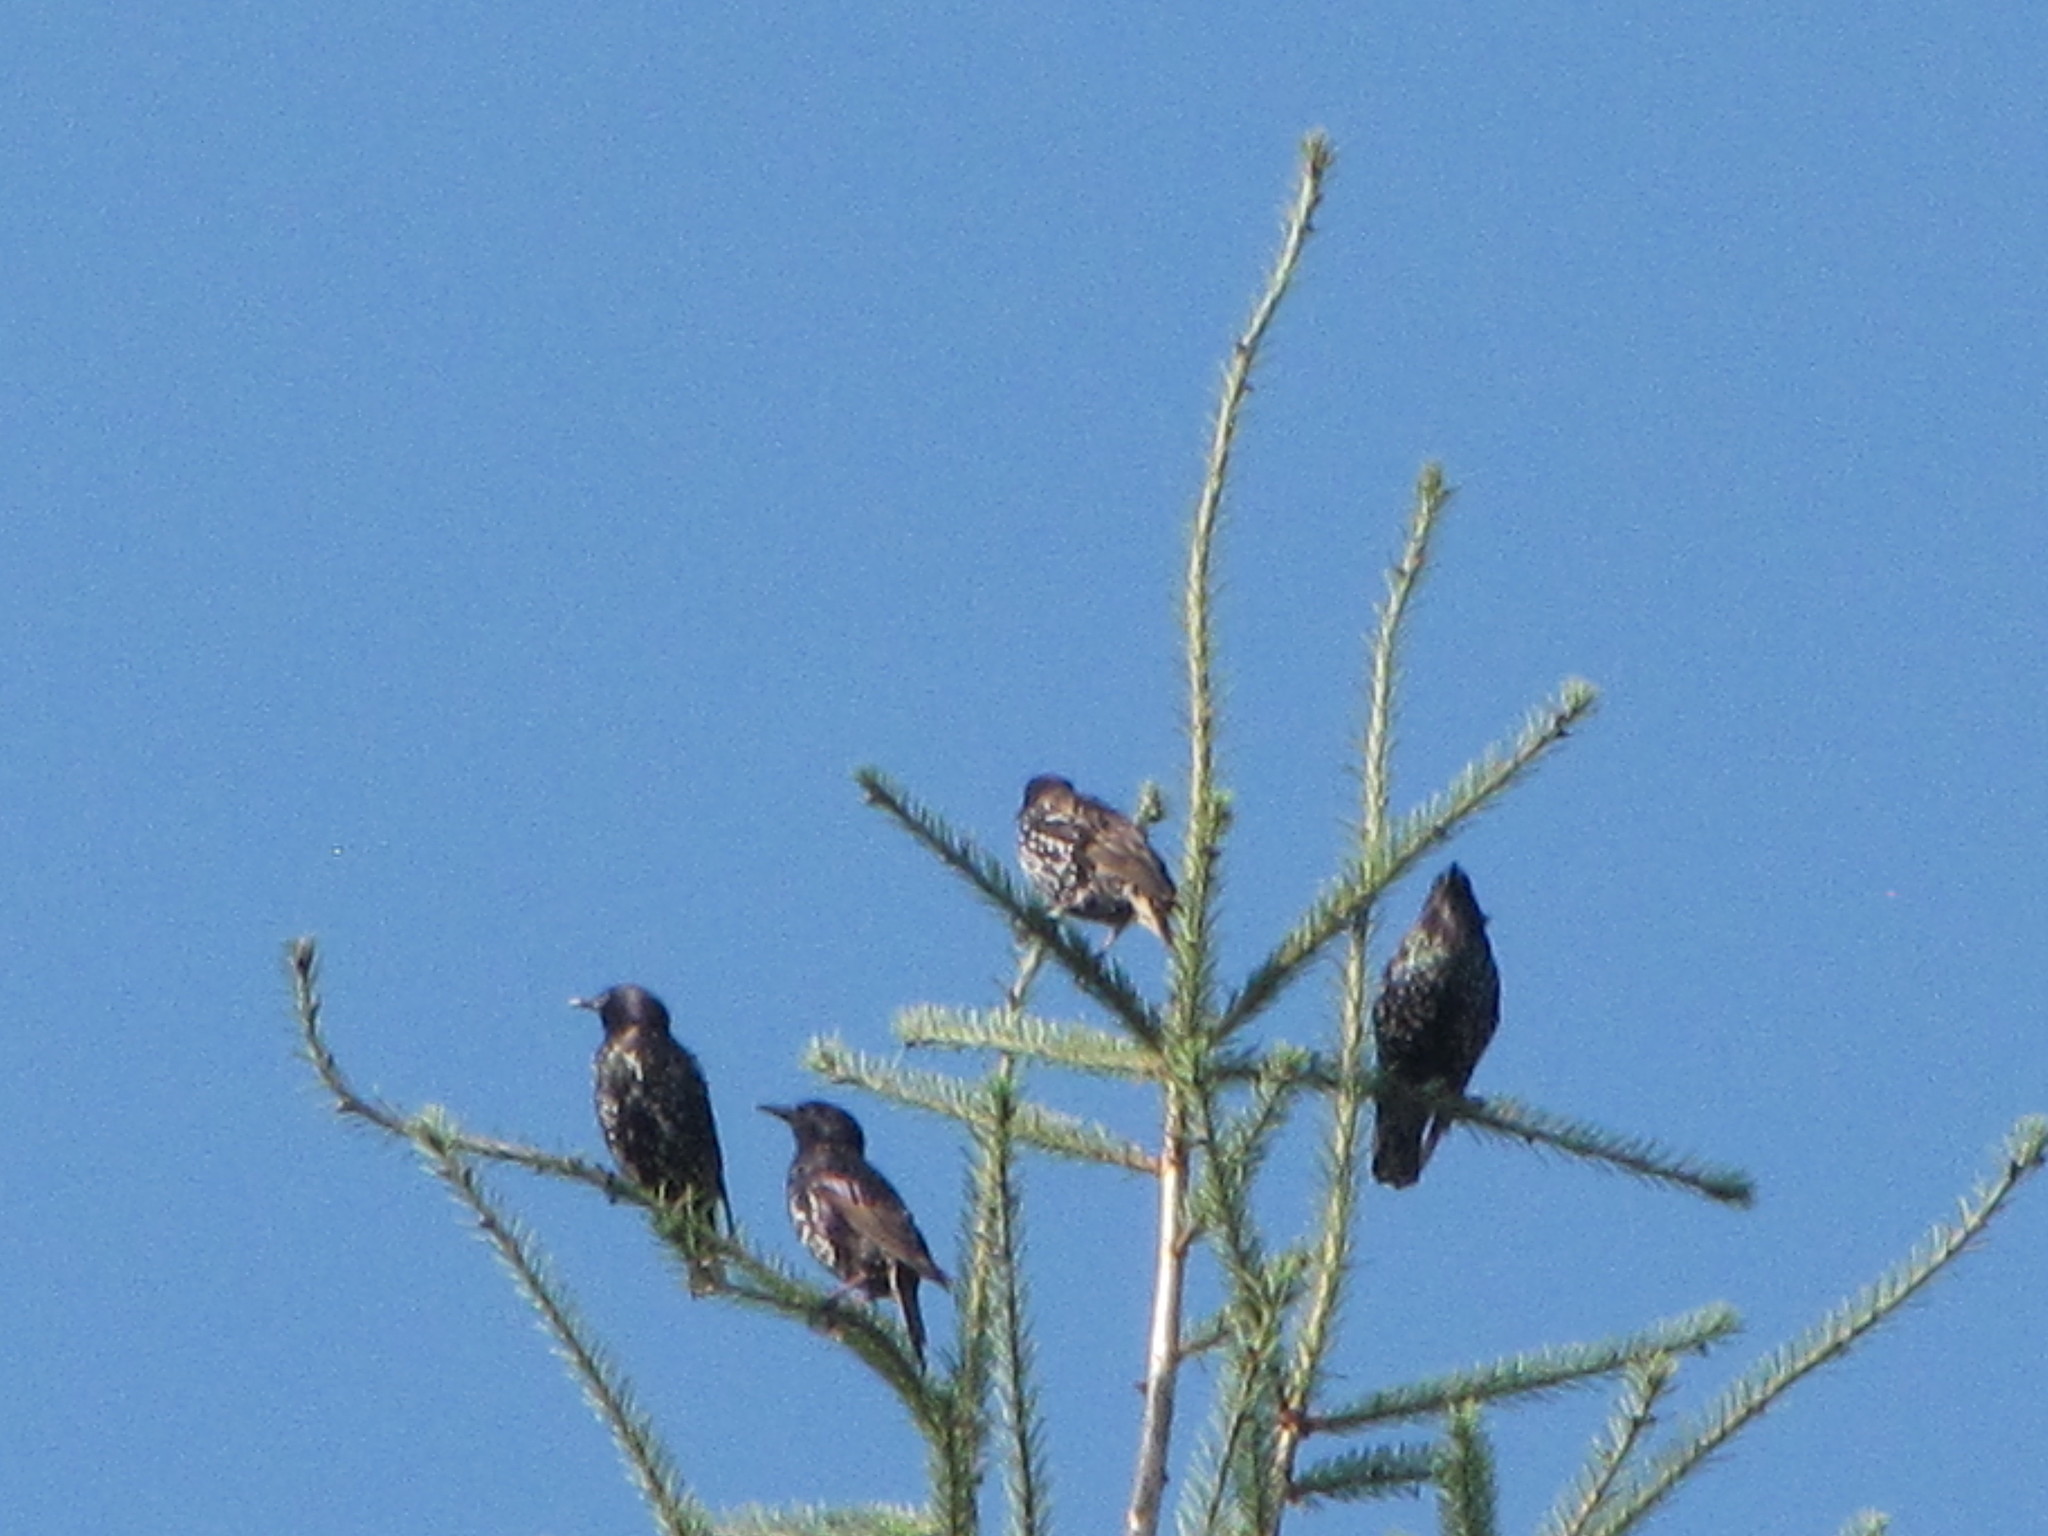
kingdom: Animalia
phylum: Chordata
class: Aves
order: Passeriformes
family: Sturnidae
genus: Sturnus
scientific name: Sturnus vulgaris
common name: Common starling
